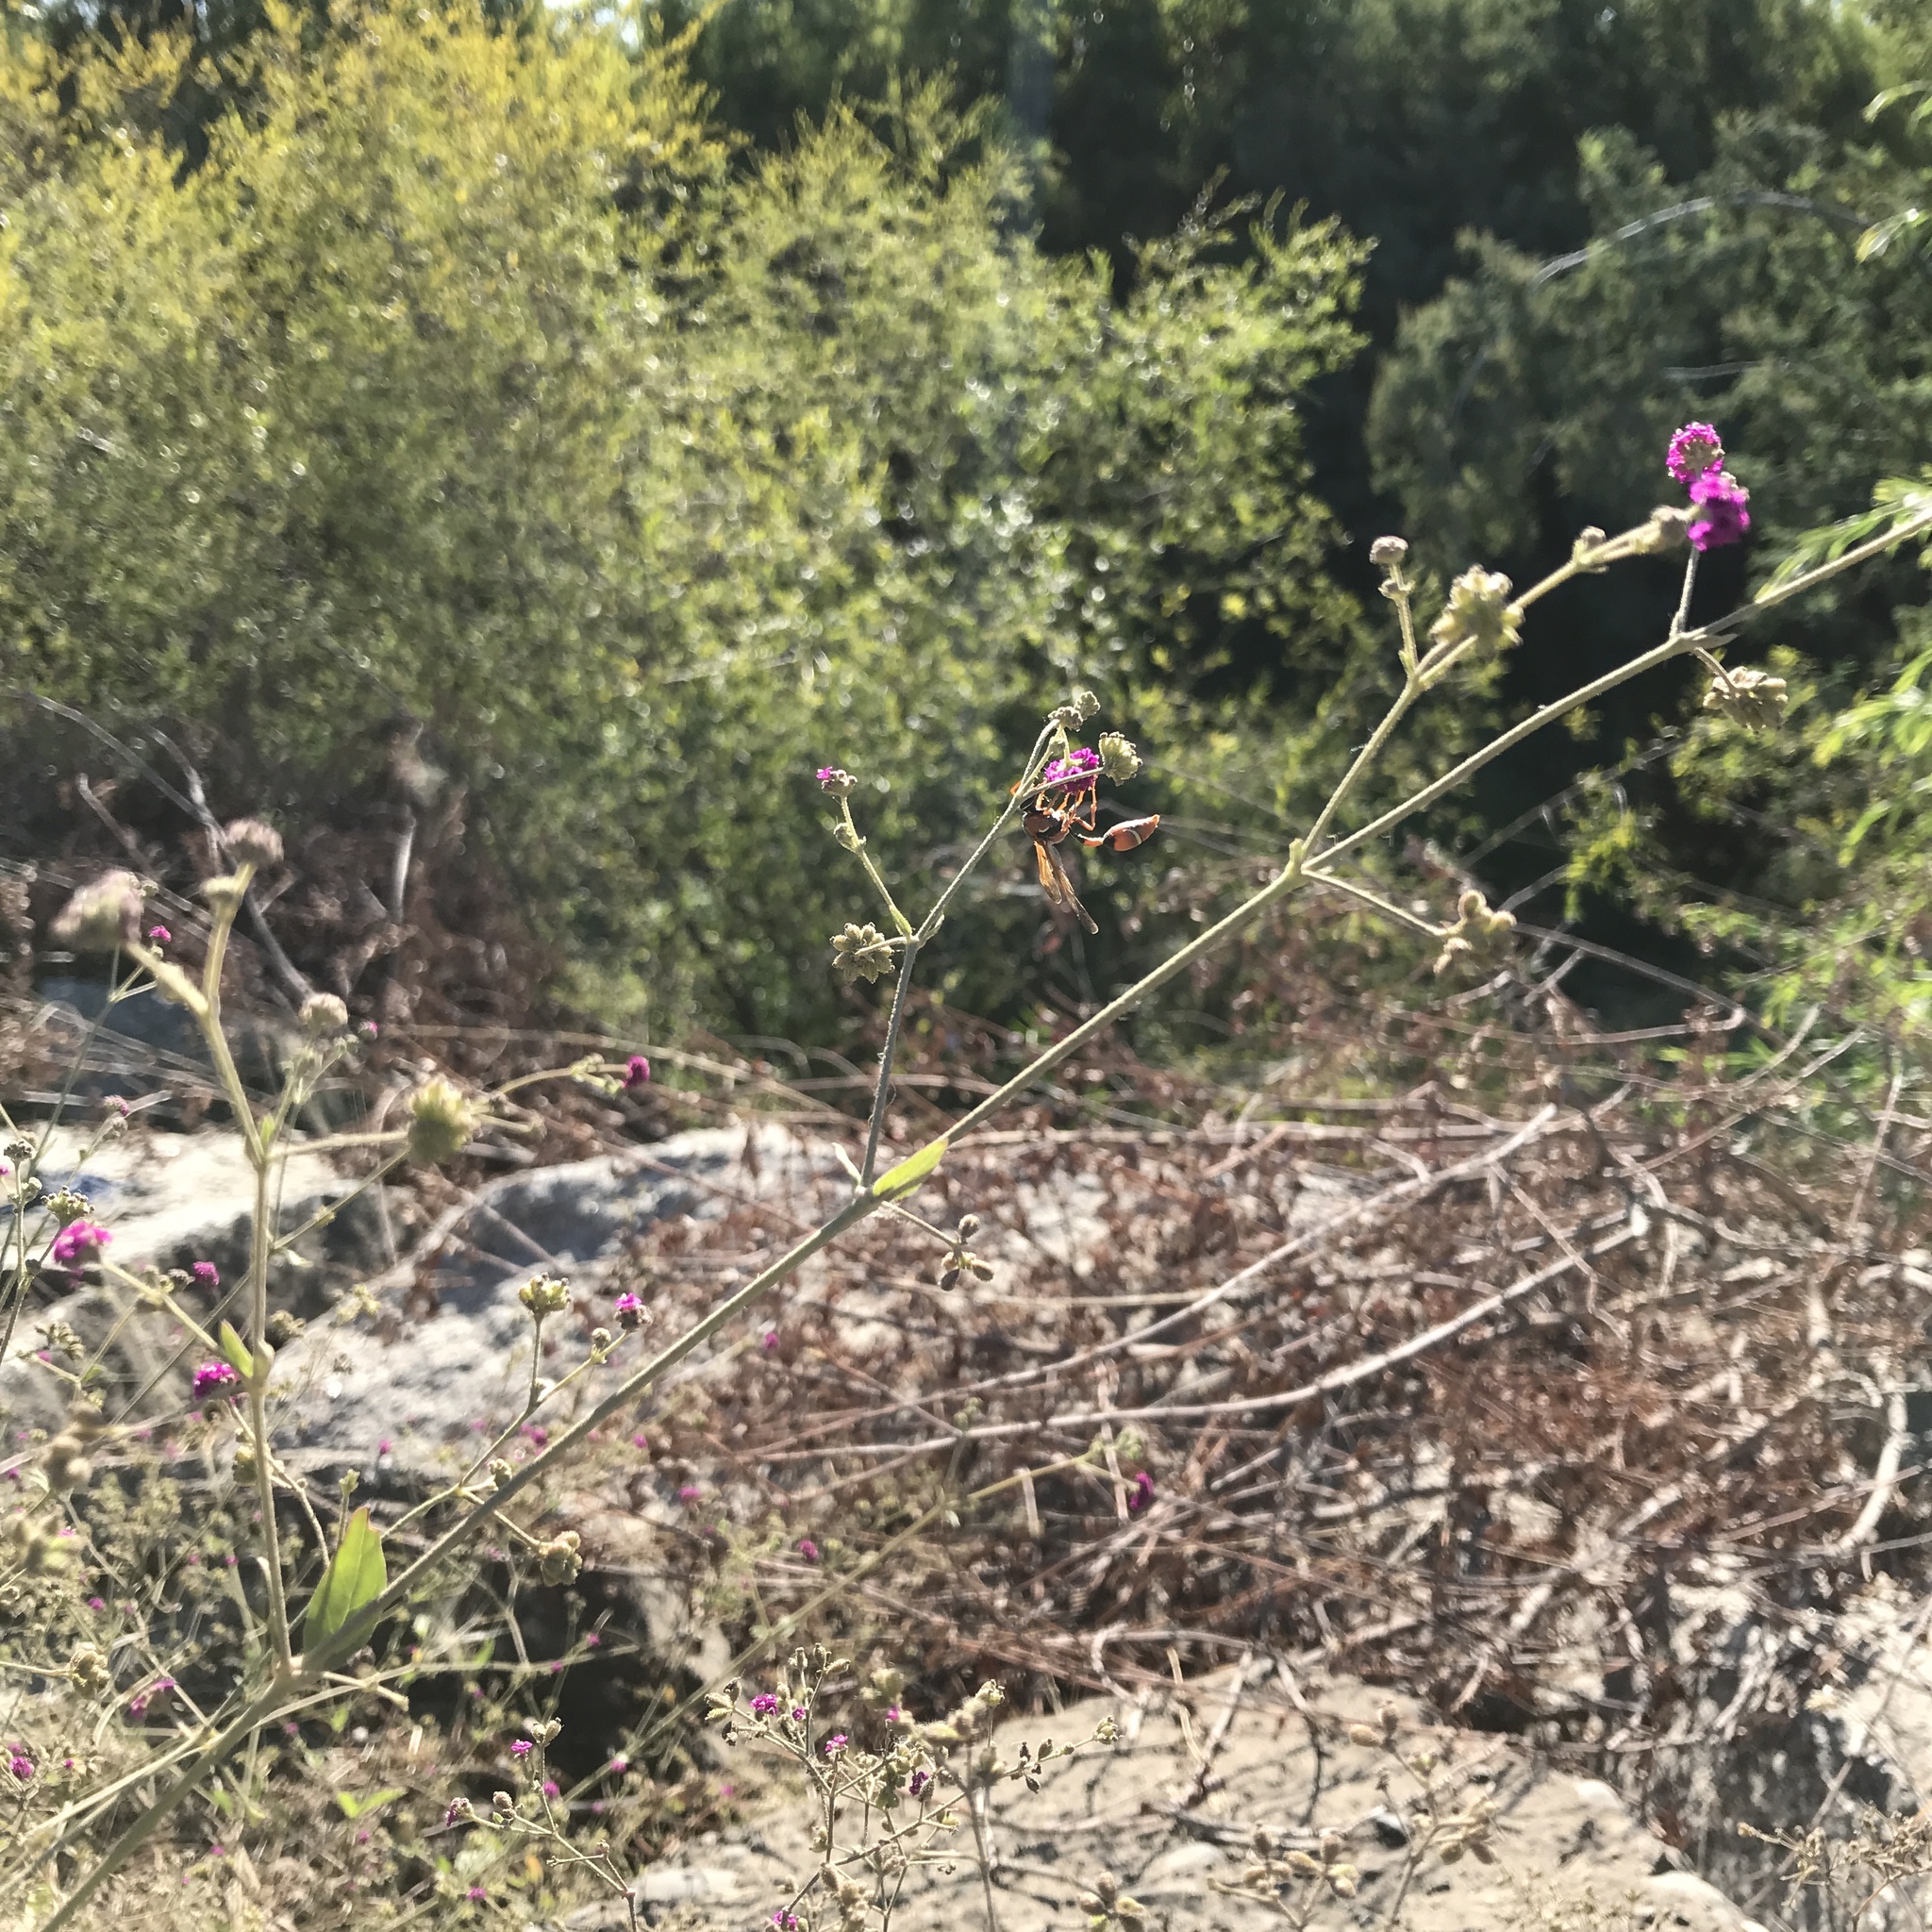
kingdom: Animalia
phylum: Arthropoda
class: Insecta
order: Hymenoptera
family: Eumenidae
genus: Zeta
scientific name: Zeta mendozanus
